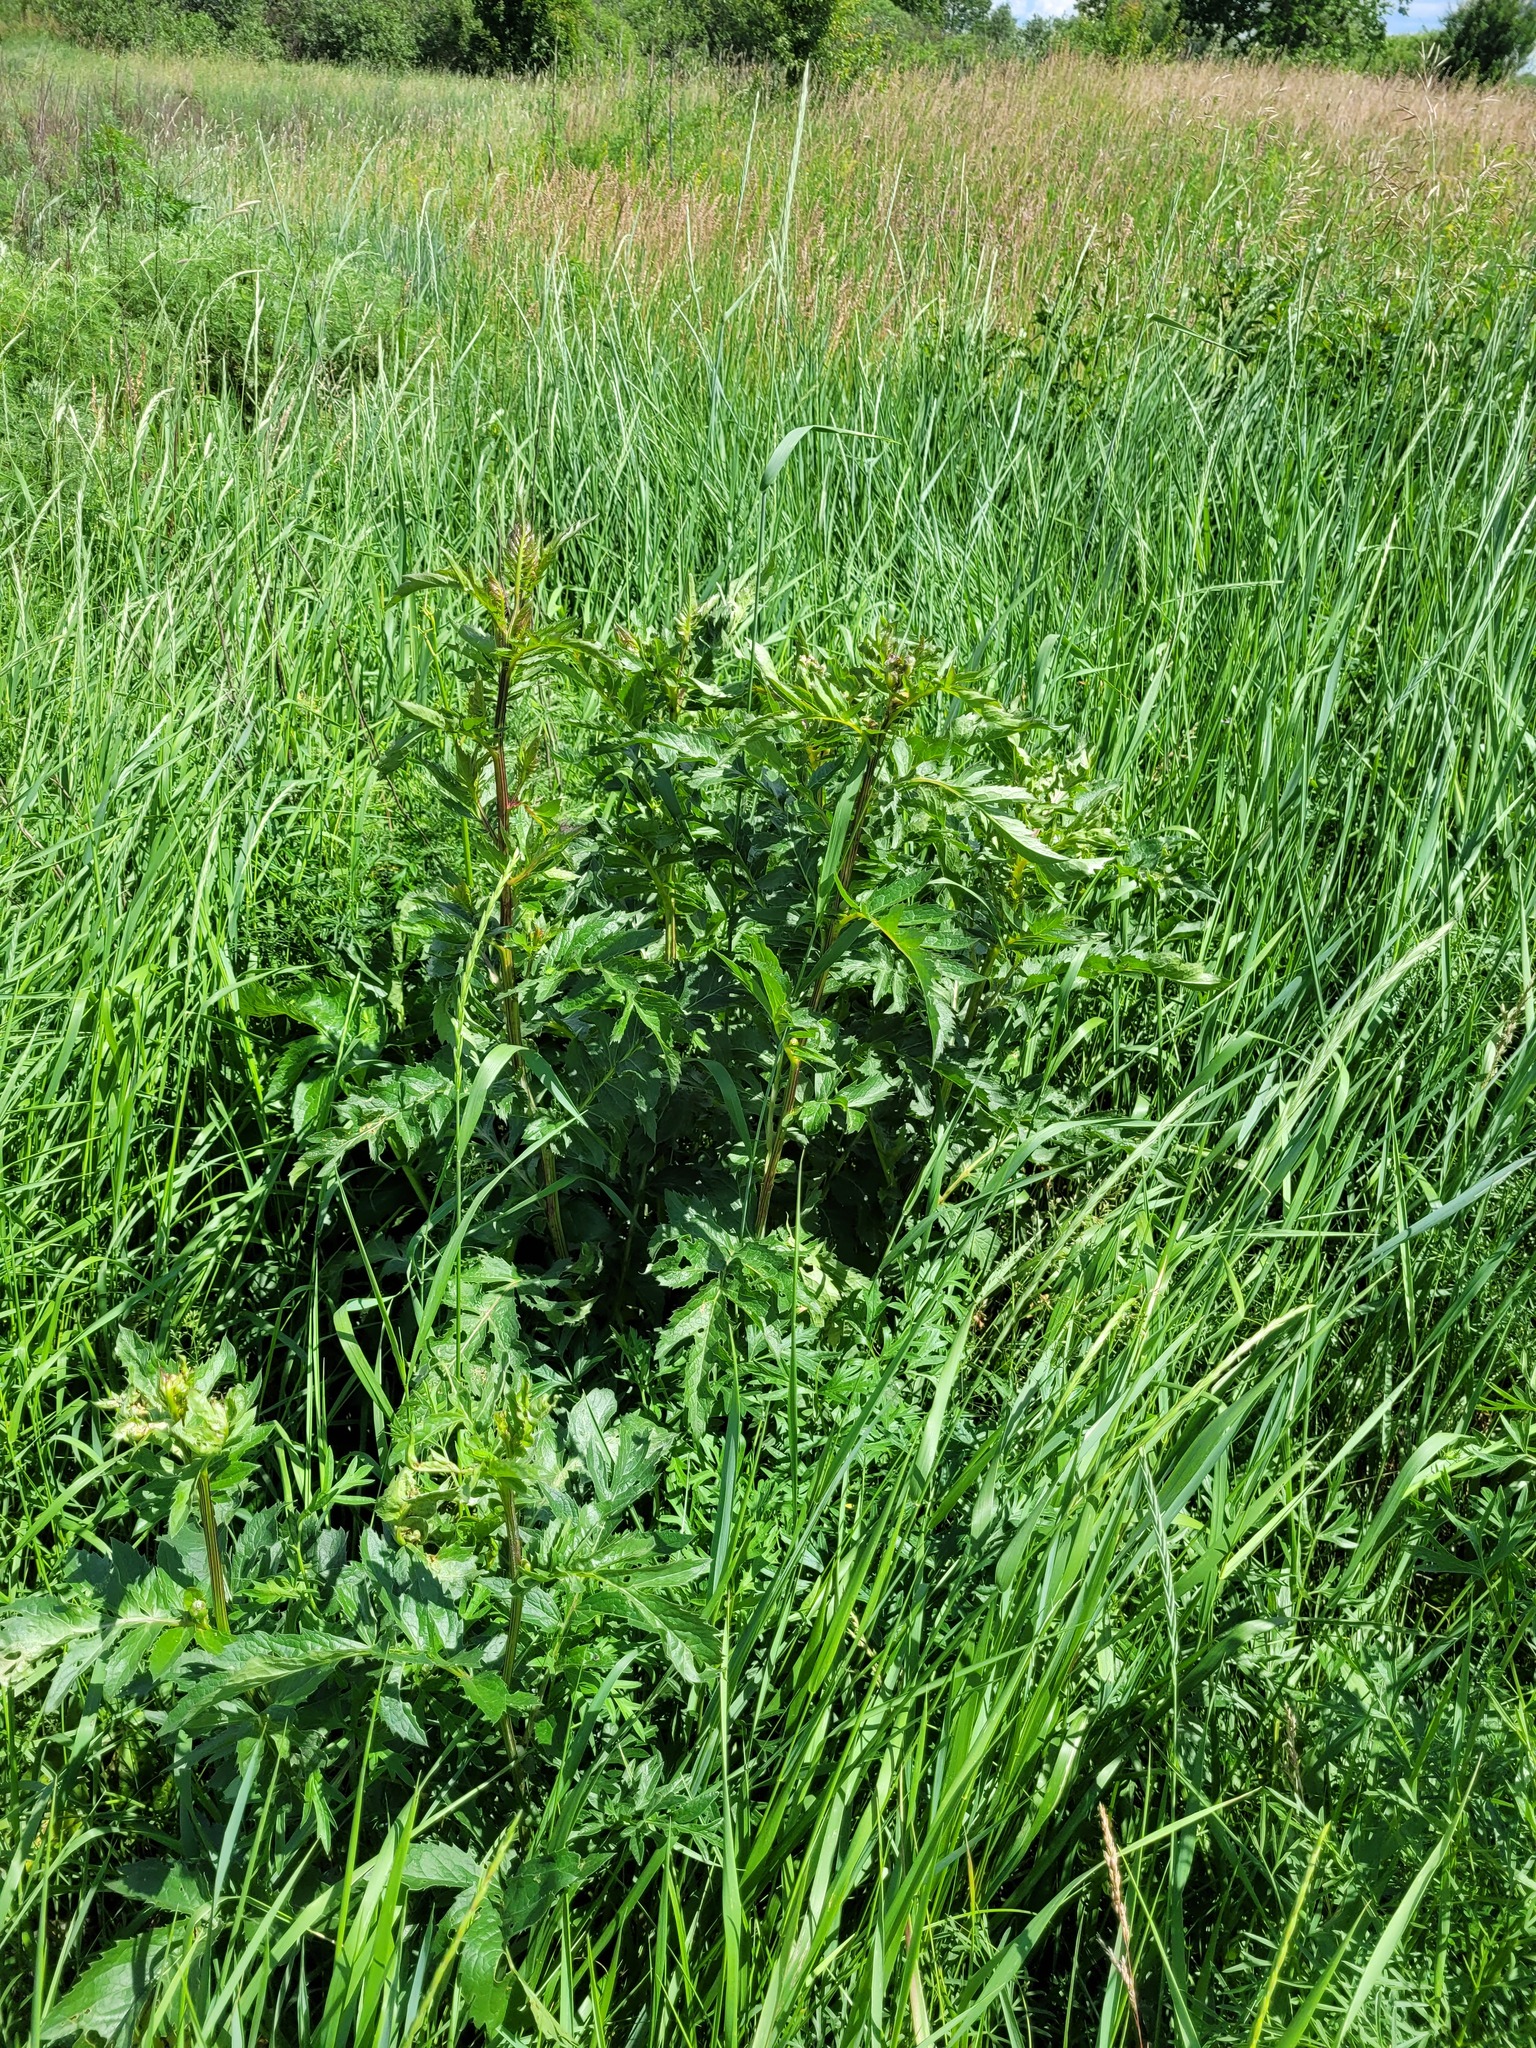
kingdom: Plantae
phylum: Tracheophyta
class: Magnoliopsida
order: Asterales
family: Asteraceae
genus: Serratula
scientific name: Serratula coronata
